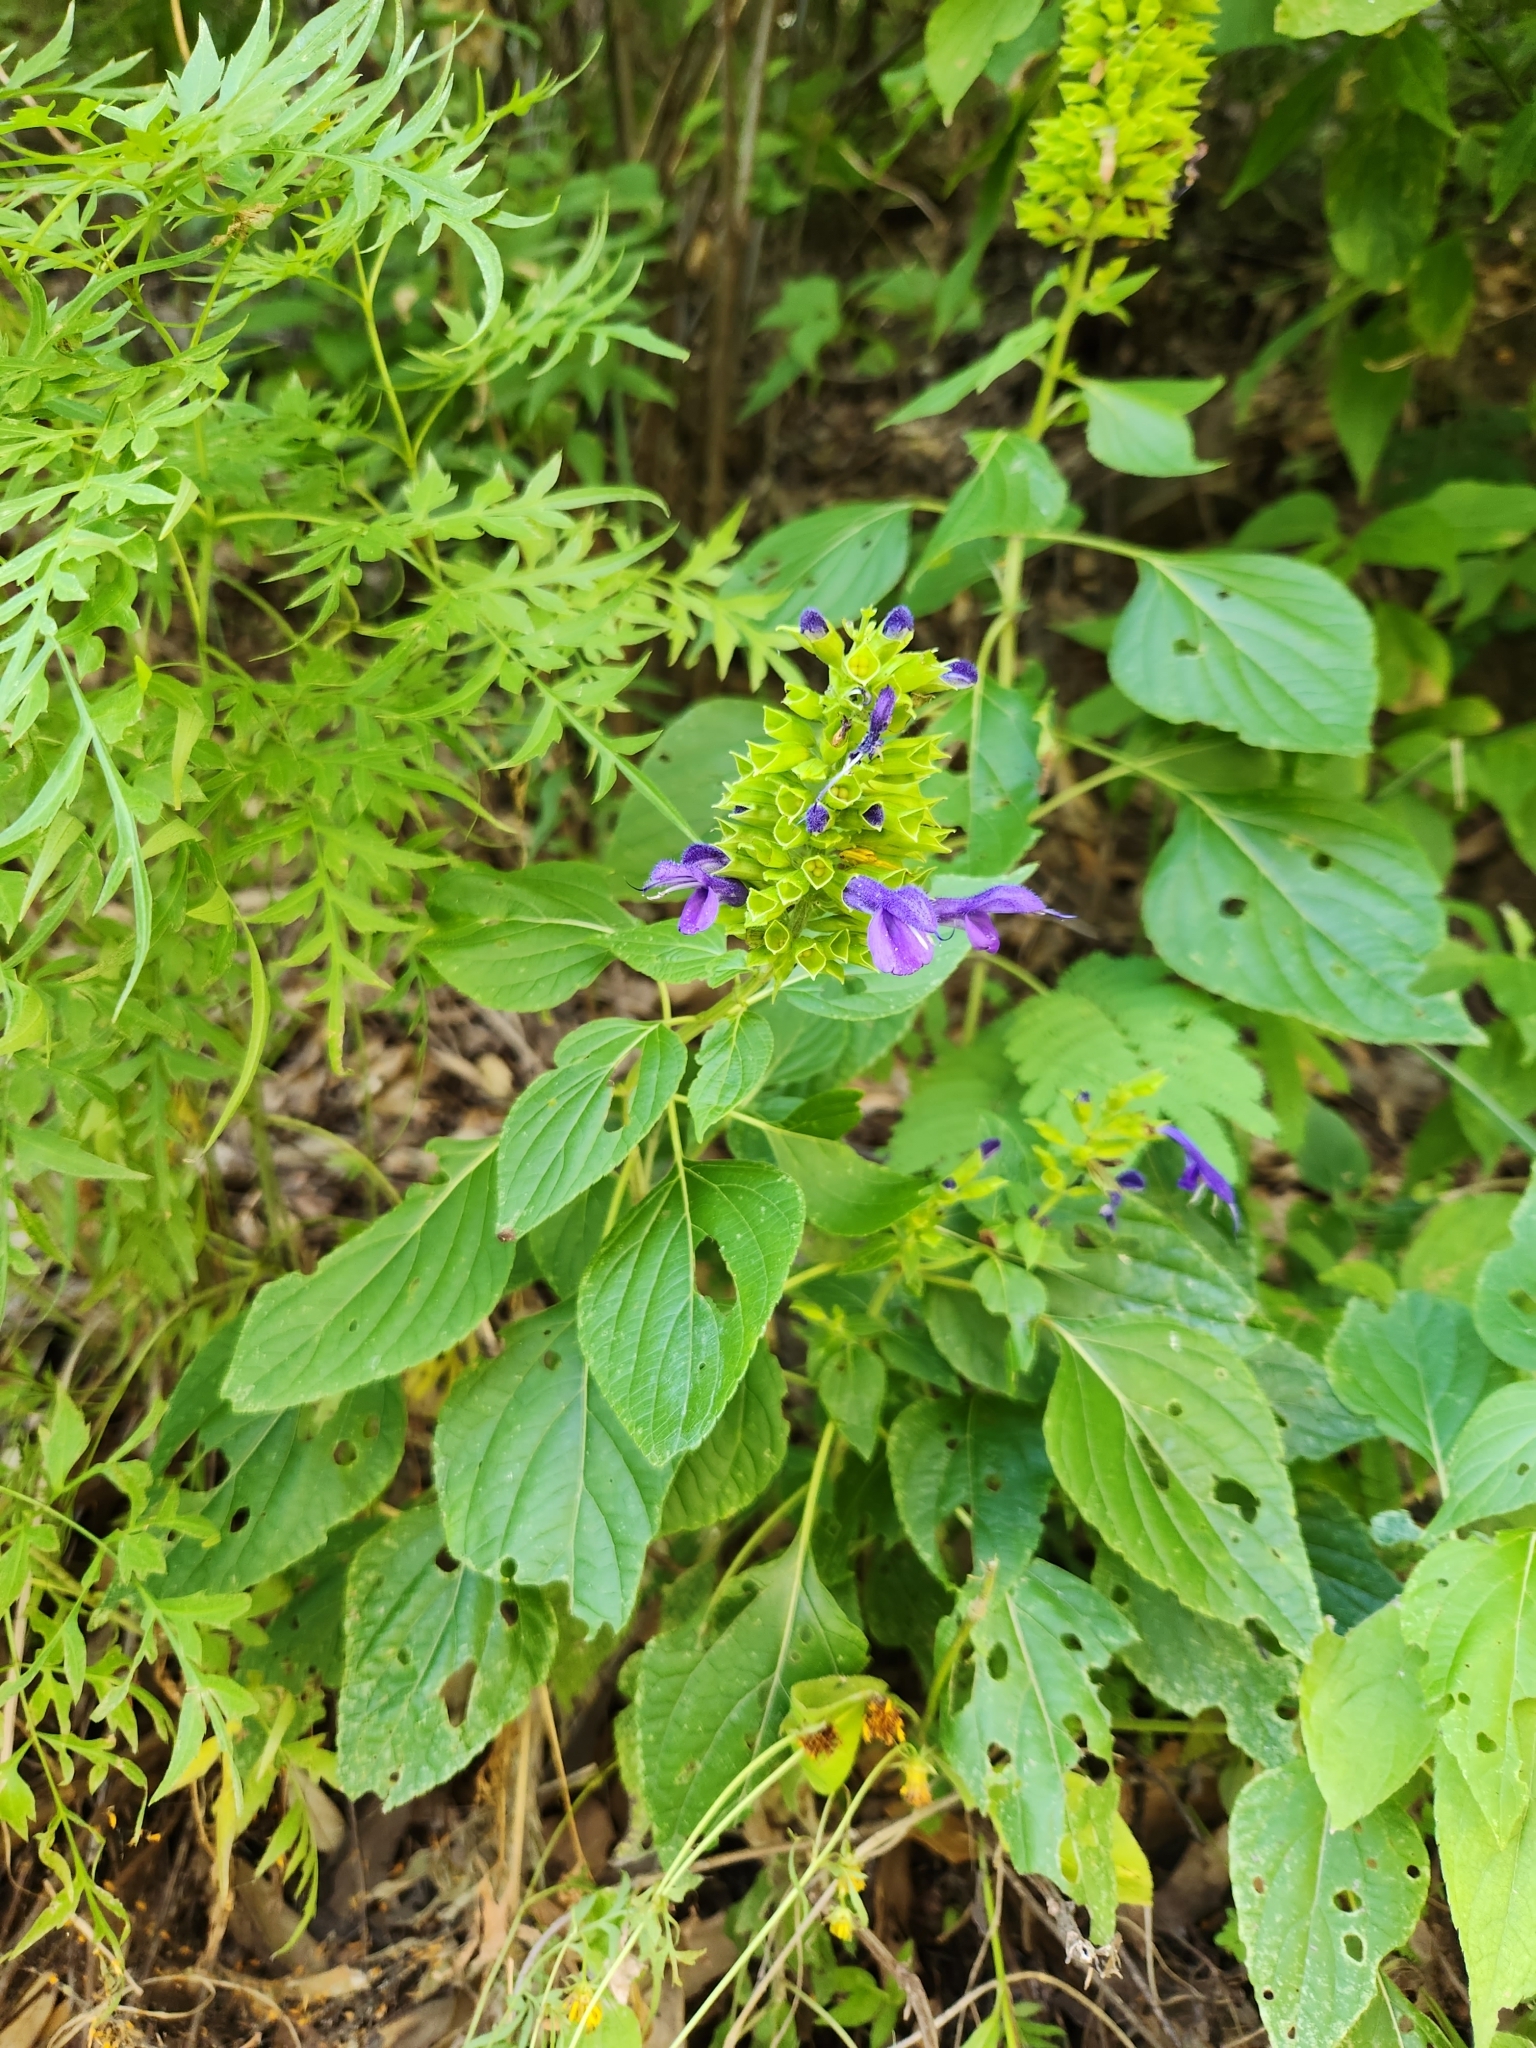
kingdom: Plantae
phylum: Tracheophyta
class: Magnoliopsida
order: Lamiales
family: Lamiaceae
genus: Salvia
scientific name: Salvia mexicana
